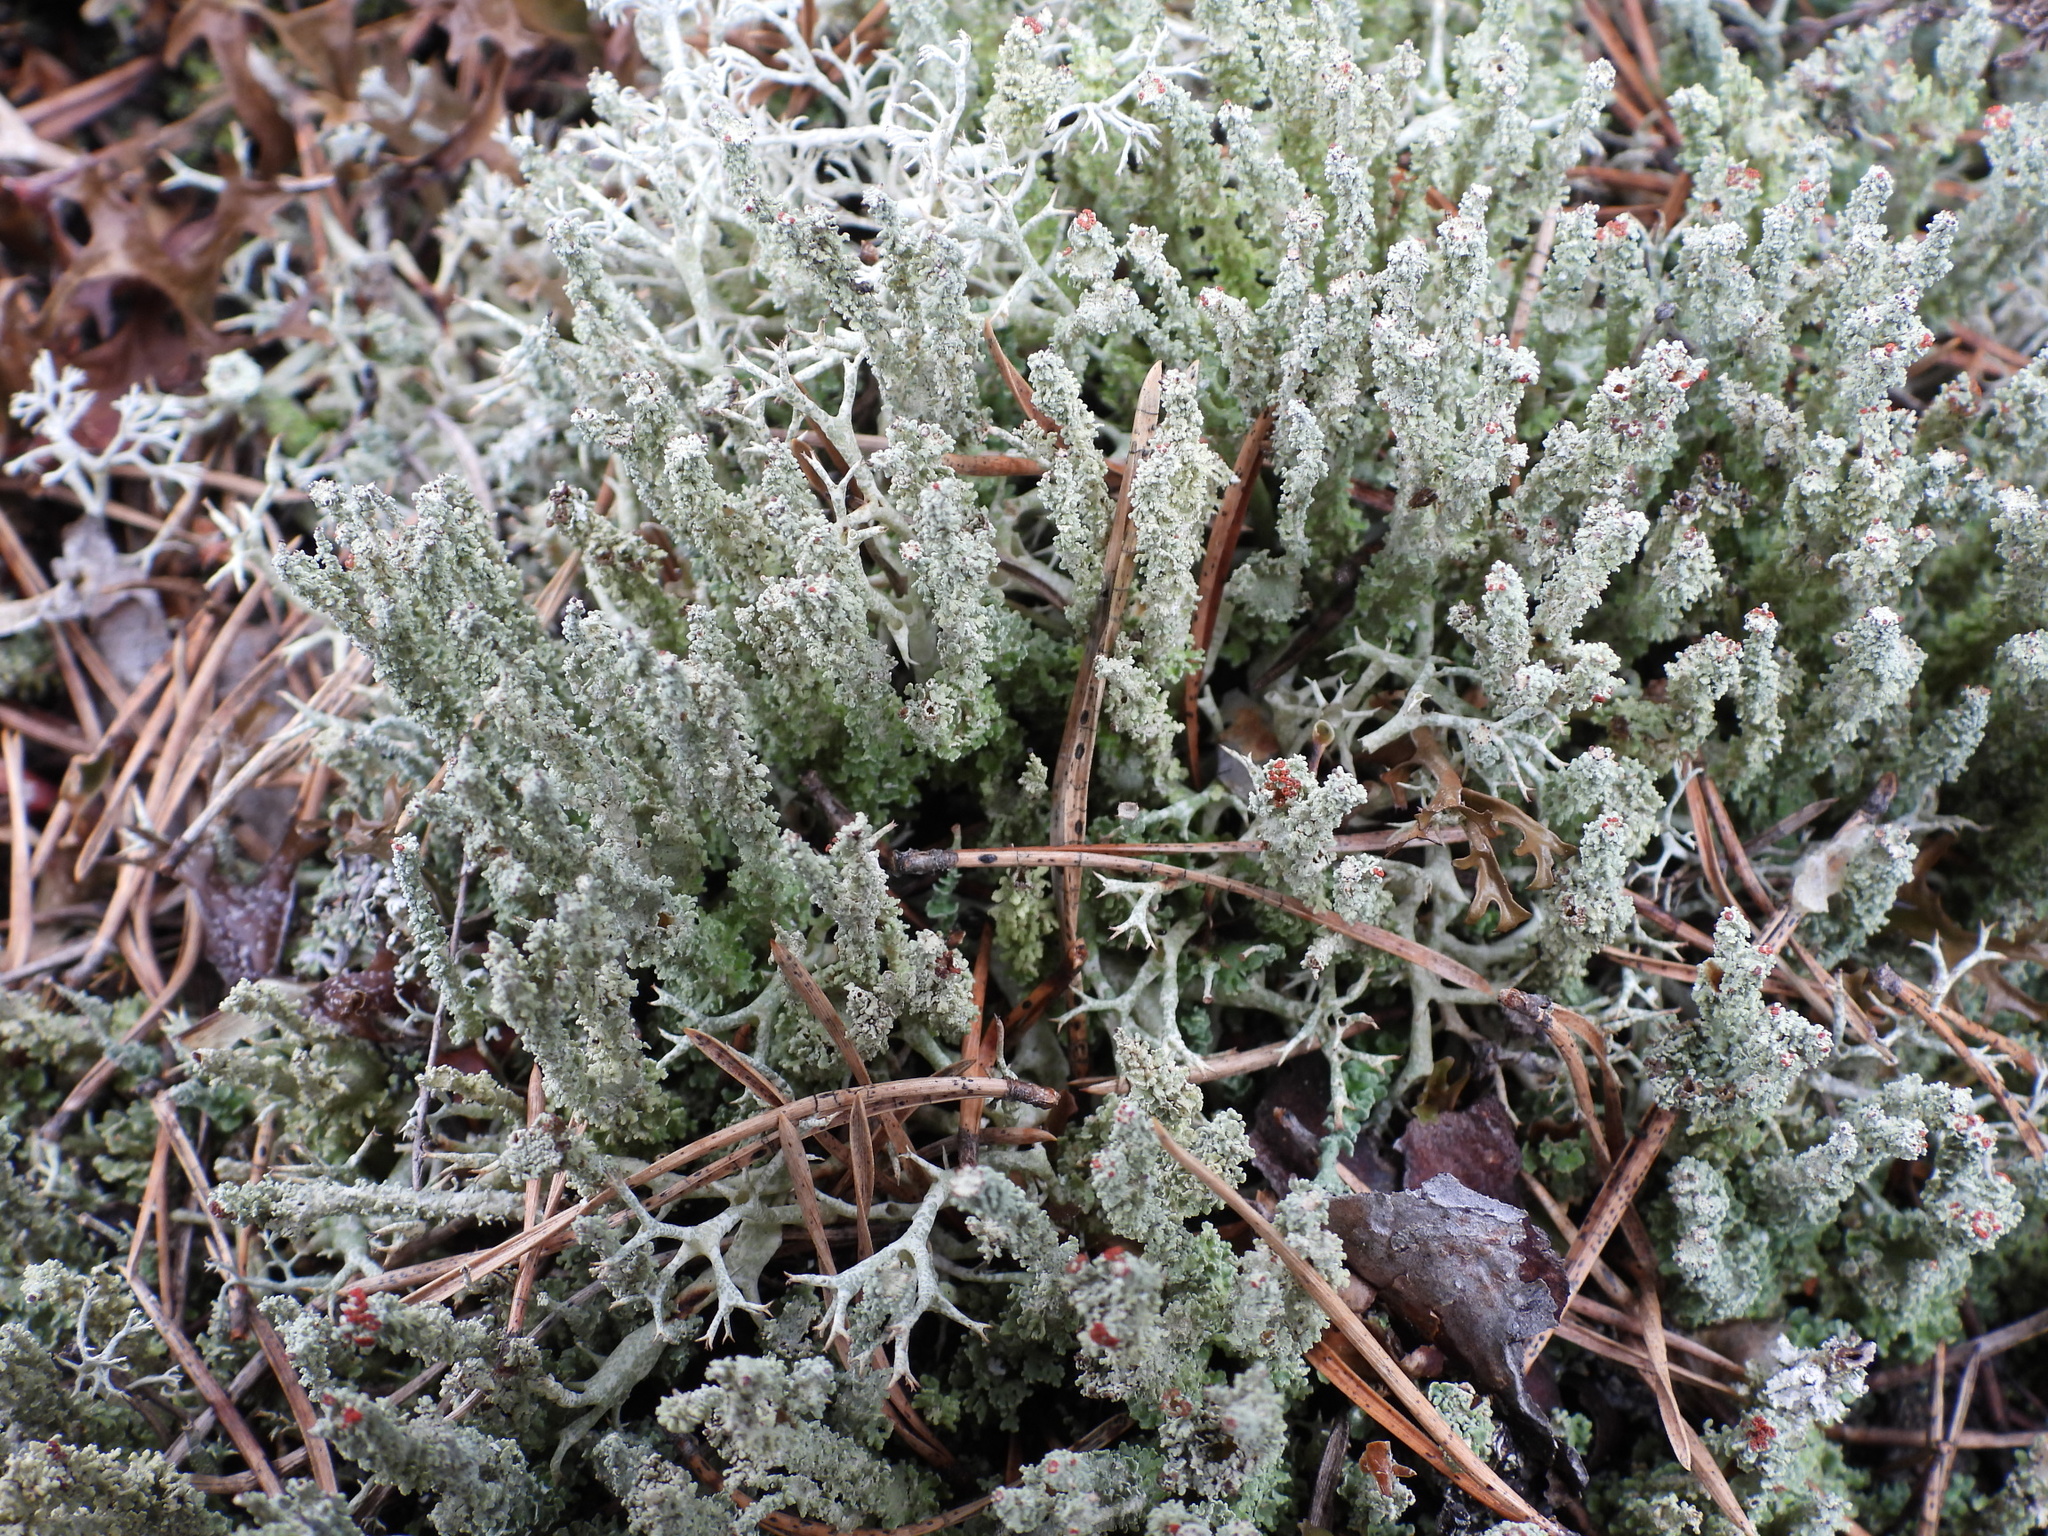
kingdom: Fungi
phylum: Ascomycota
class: Lecanoromycetes
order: Lecanorales
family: Cladoniaceae
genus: Cladonia
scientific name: Cladonia bellidiflora
